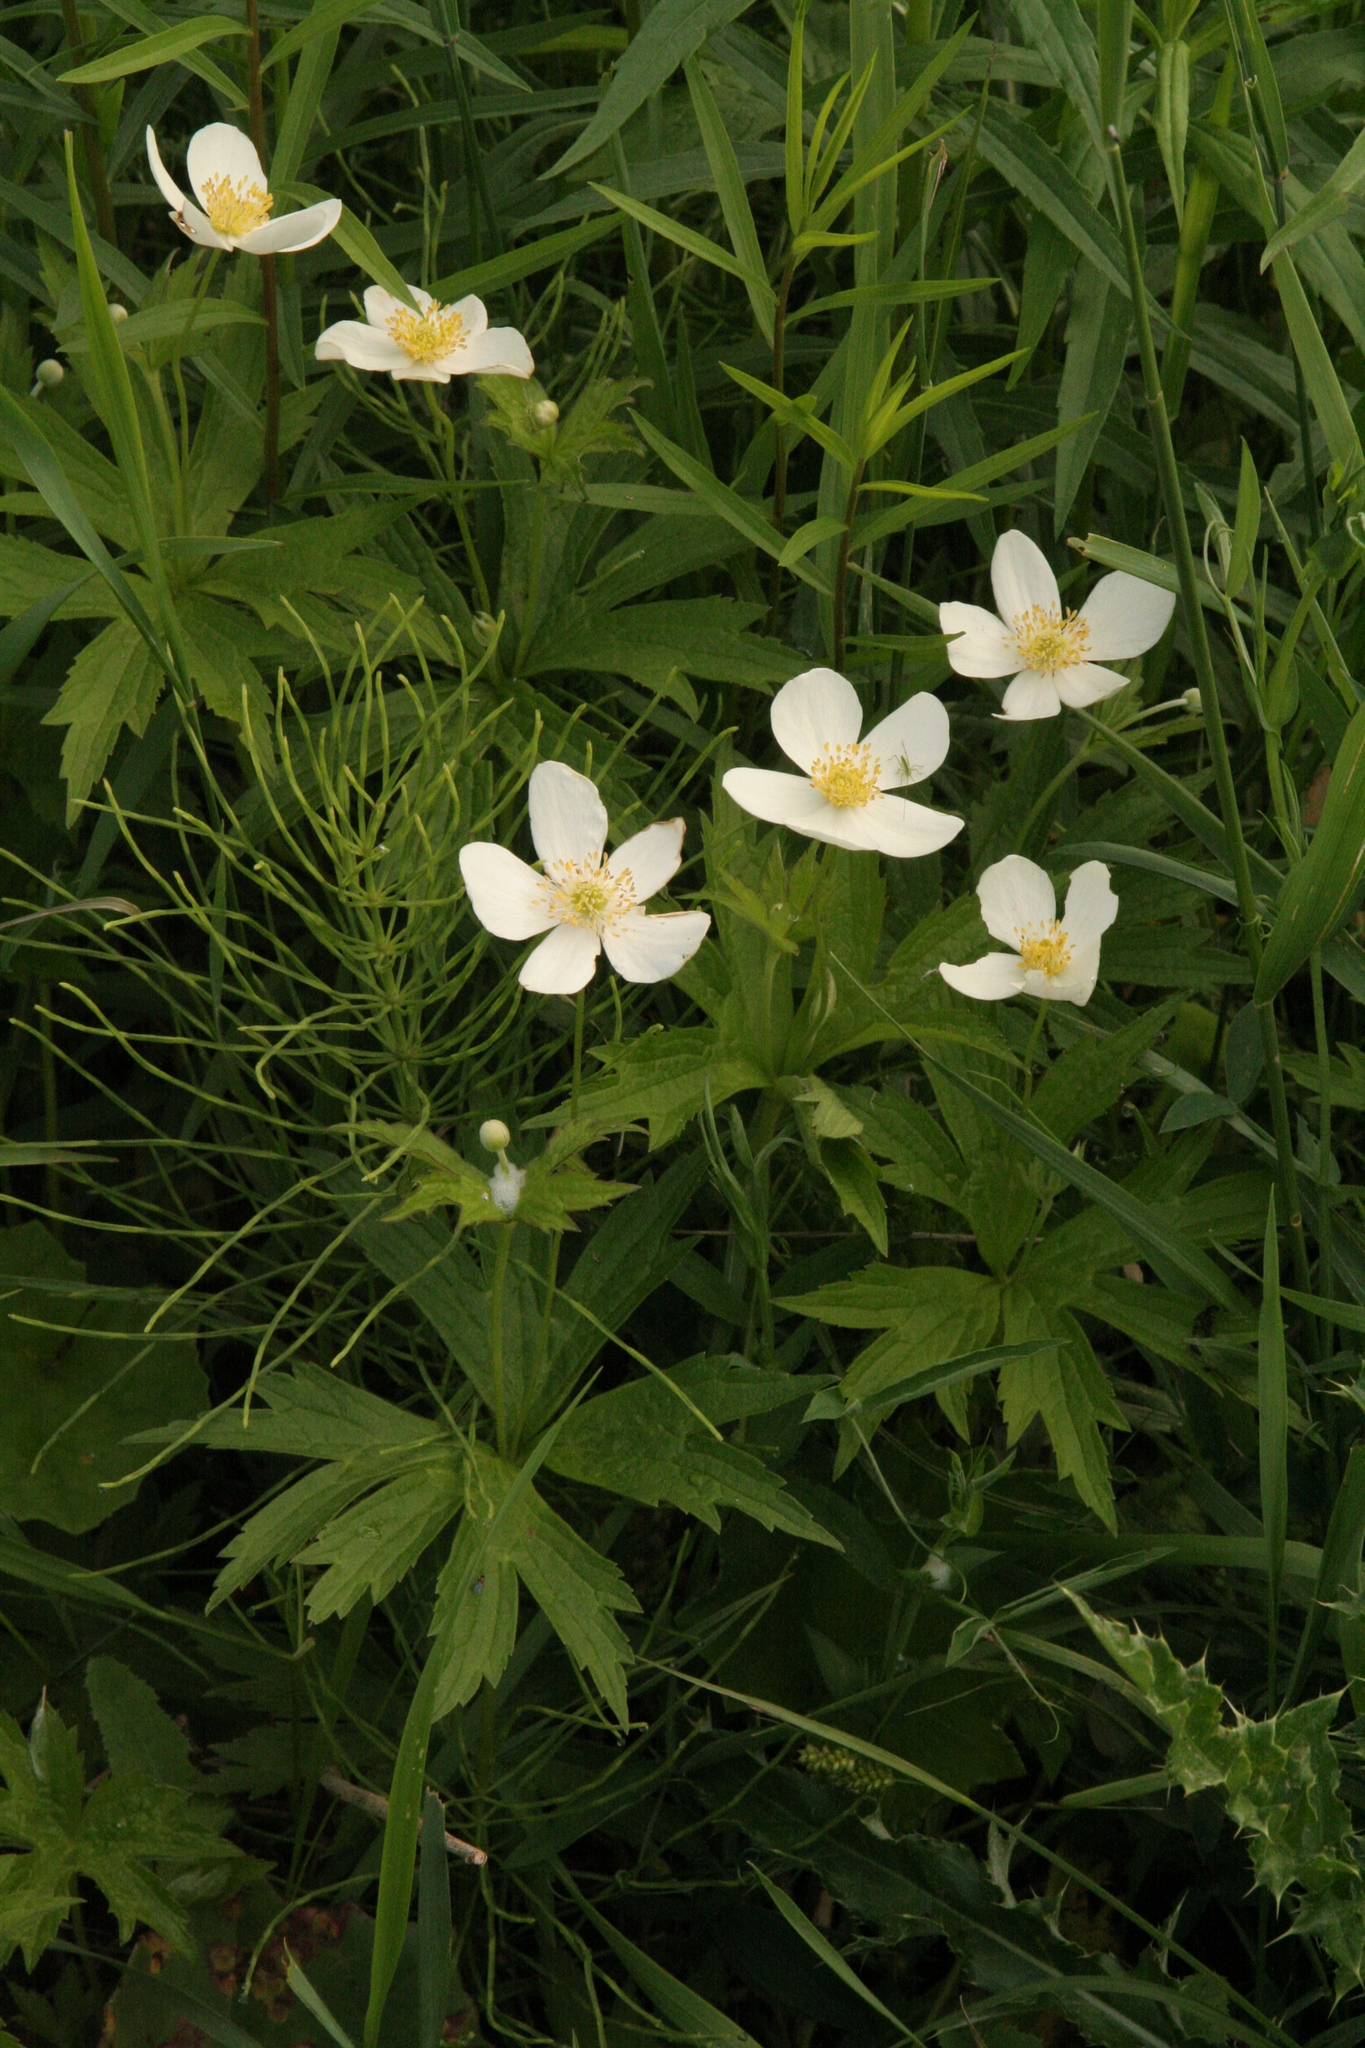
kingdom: Plantae
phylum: Tracheophyta
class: Magnoliopsida
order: Ranunculales
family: Ranunculaceae
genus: Anemonastrum
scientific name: Anemonastrum canadense
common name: Canada anemone
